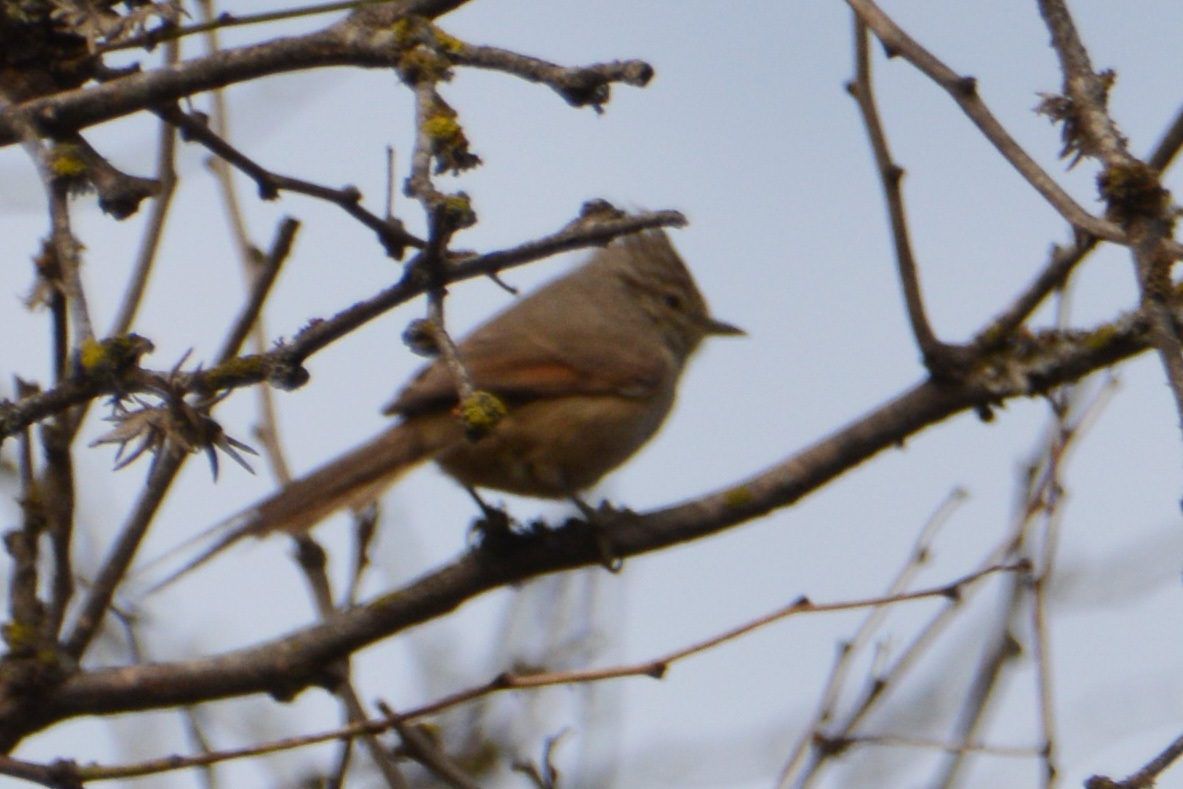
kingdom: Animalia
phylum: Chordata
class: Aves
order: Passeriformes
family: Furnariidae
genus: Leptasthenura
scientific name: Leptasthenura platensis
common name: Tufted tit-spinetail
